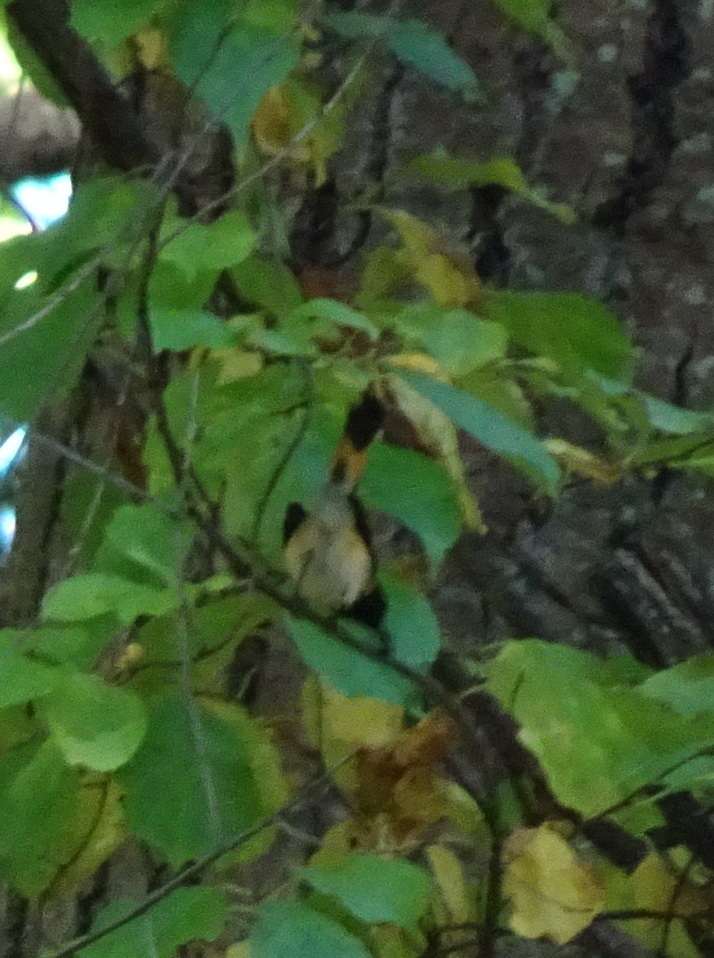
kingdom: Animalia
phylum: Chordata
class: Aves
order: Passeriformes
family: Parulidae
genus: Setophaga
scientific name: Setophaga ruticilla
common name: American redstart
